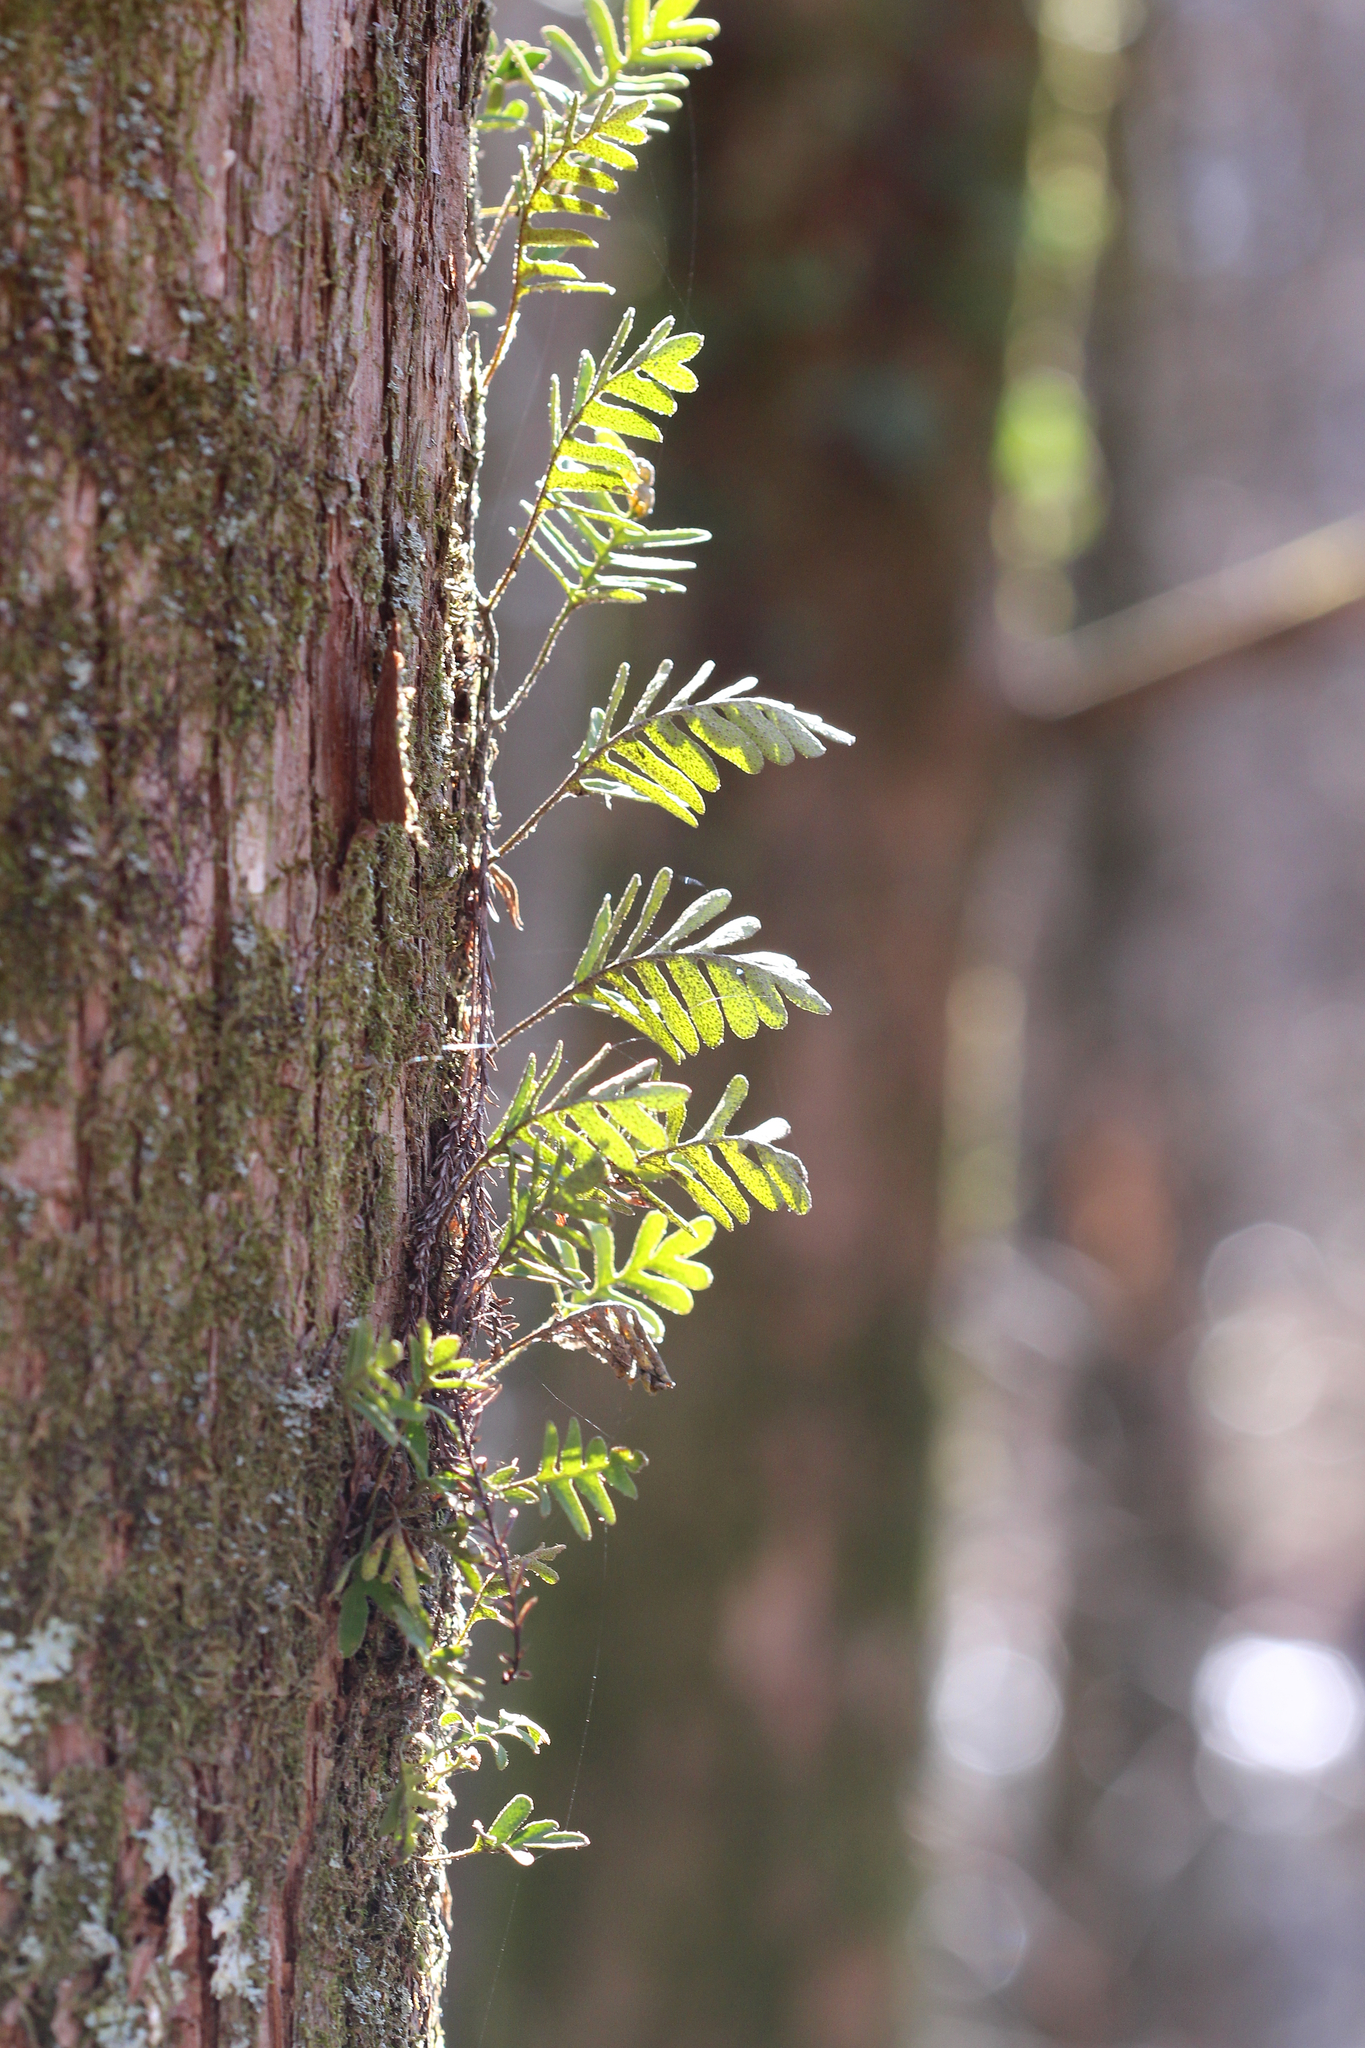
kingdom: Plantae
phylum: Tracheophyta
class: Polypodiopsida
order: Polypodiales
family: Polypodiaceae
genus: Pleopeltis
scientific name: Pleopeltis michauxiana
